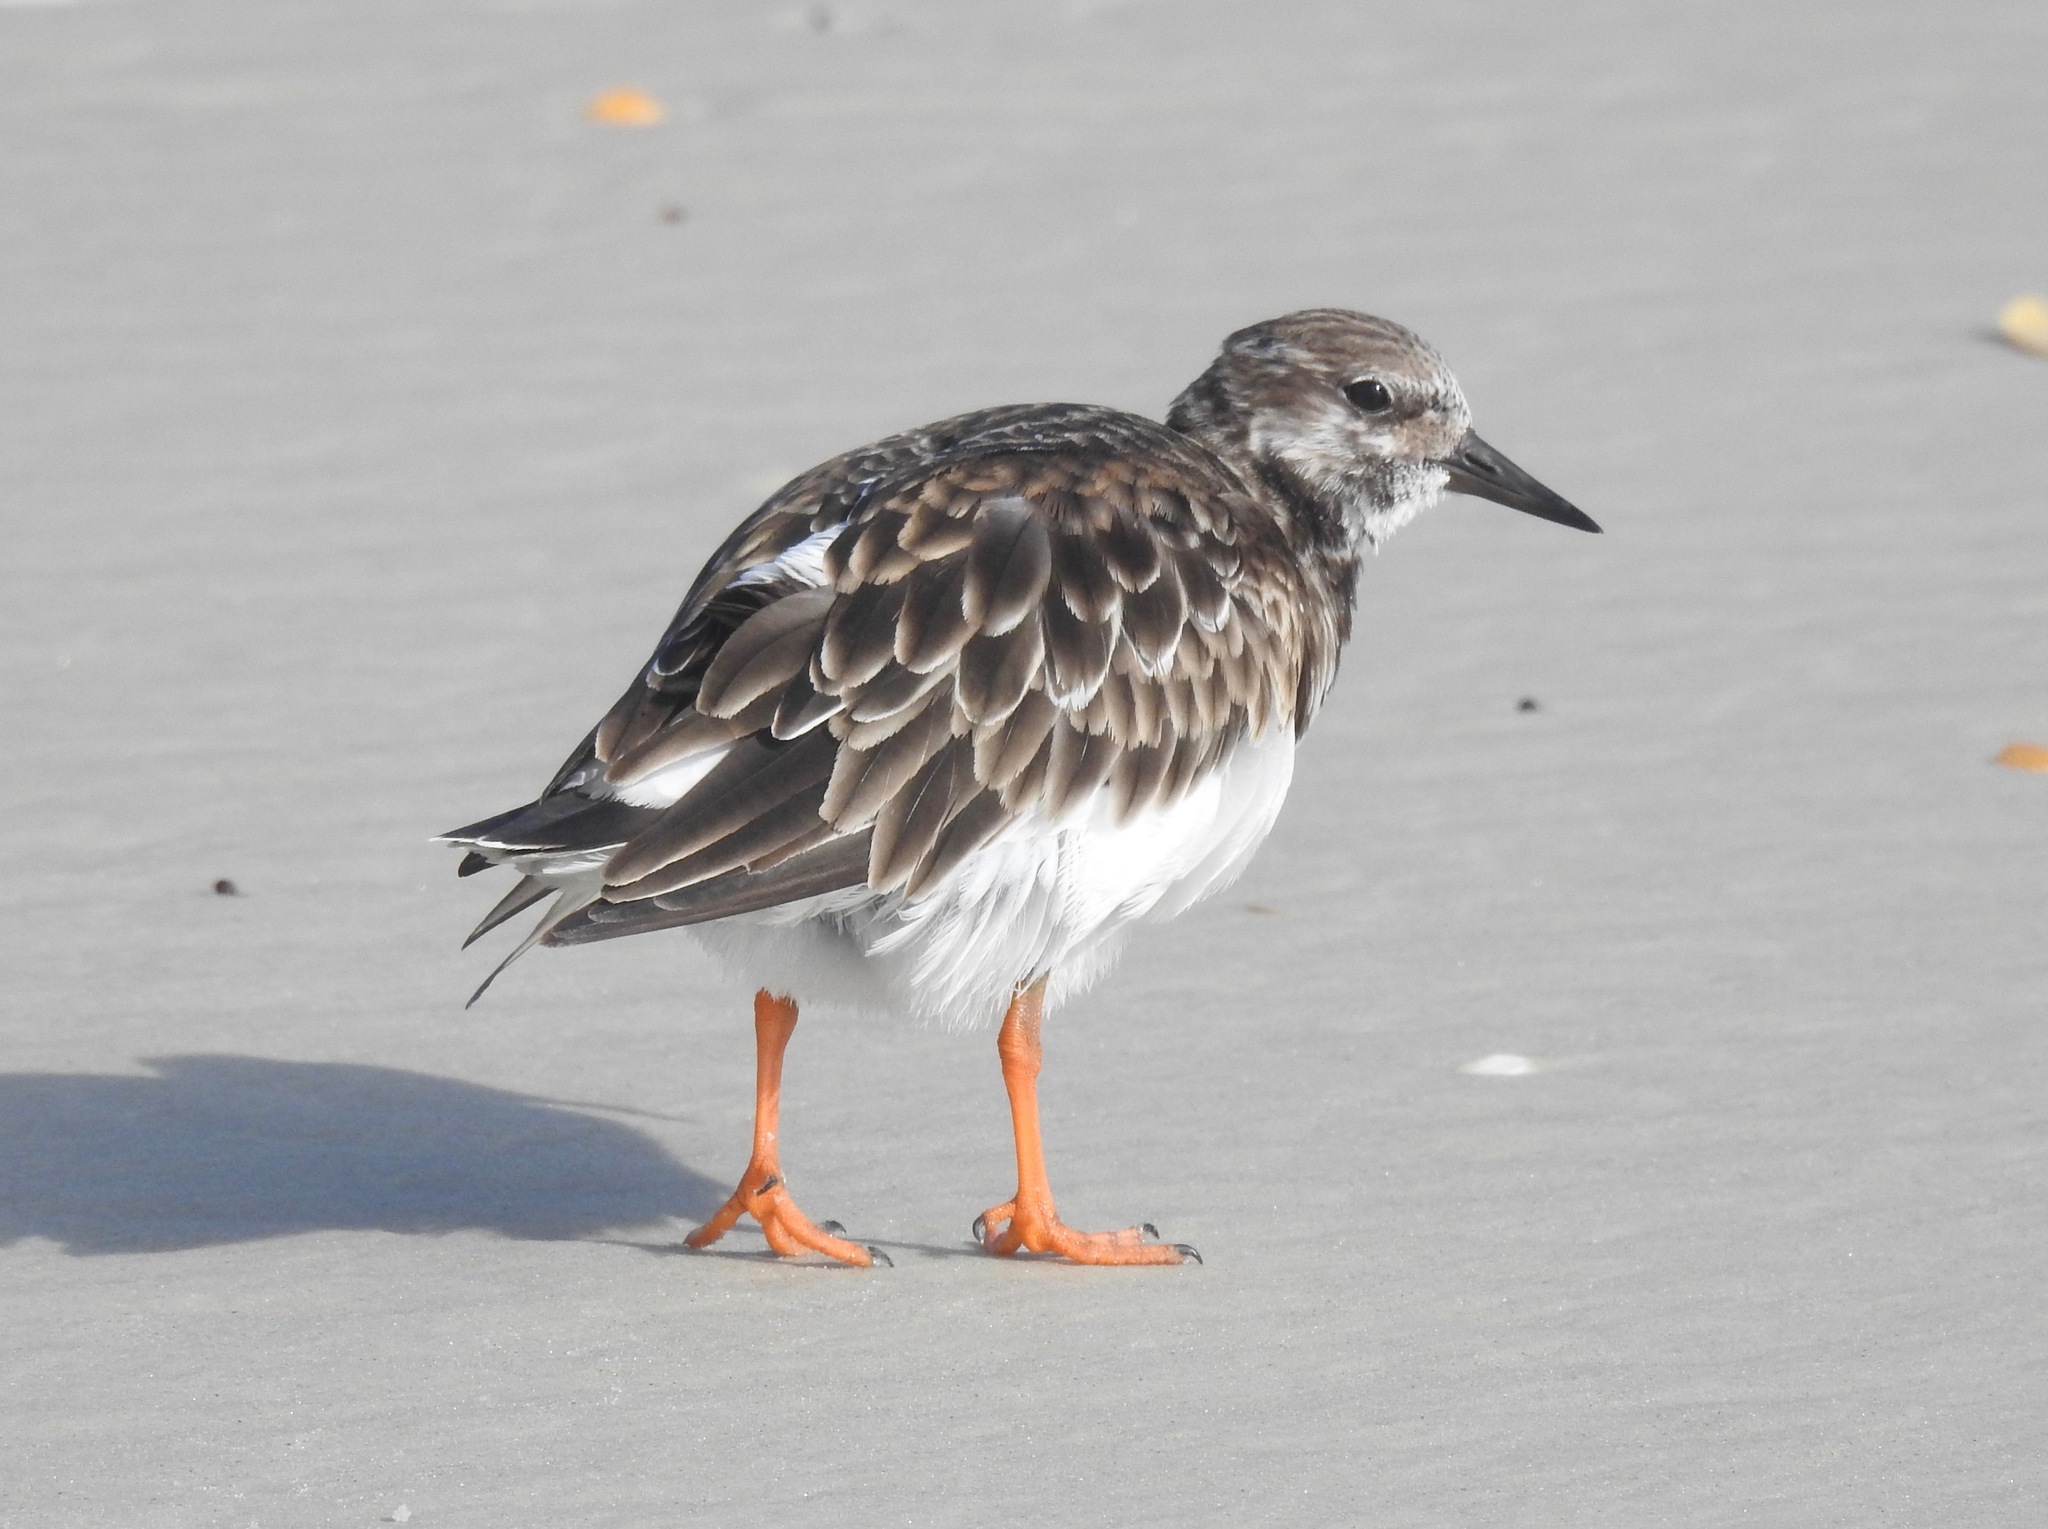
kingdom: Animalia
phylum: Chordata
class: Aves
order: Charadriiformes
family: Scolopacidae
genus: Arenaria
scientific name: Arenaria interpres
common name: Ruddy turnstone
